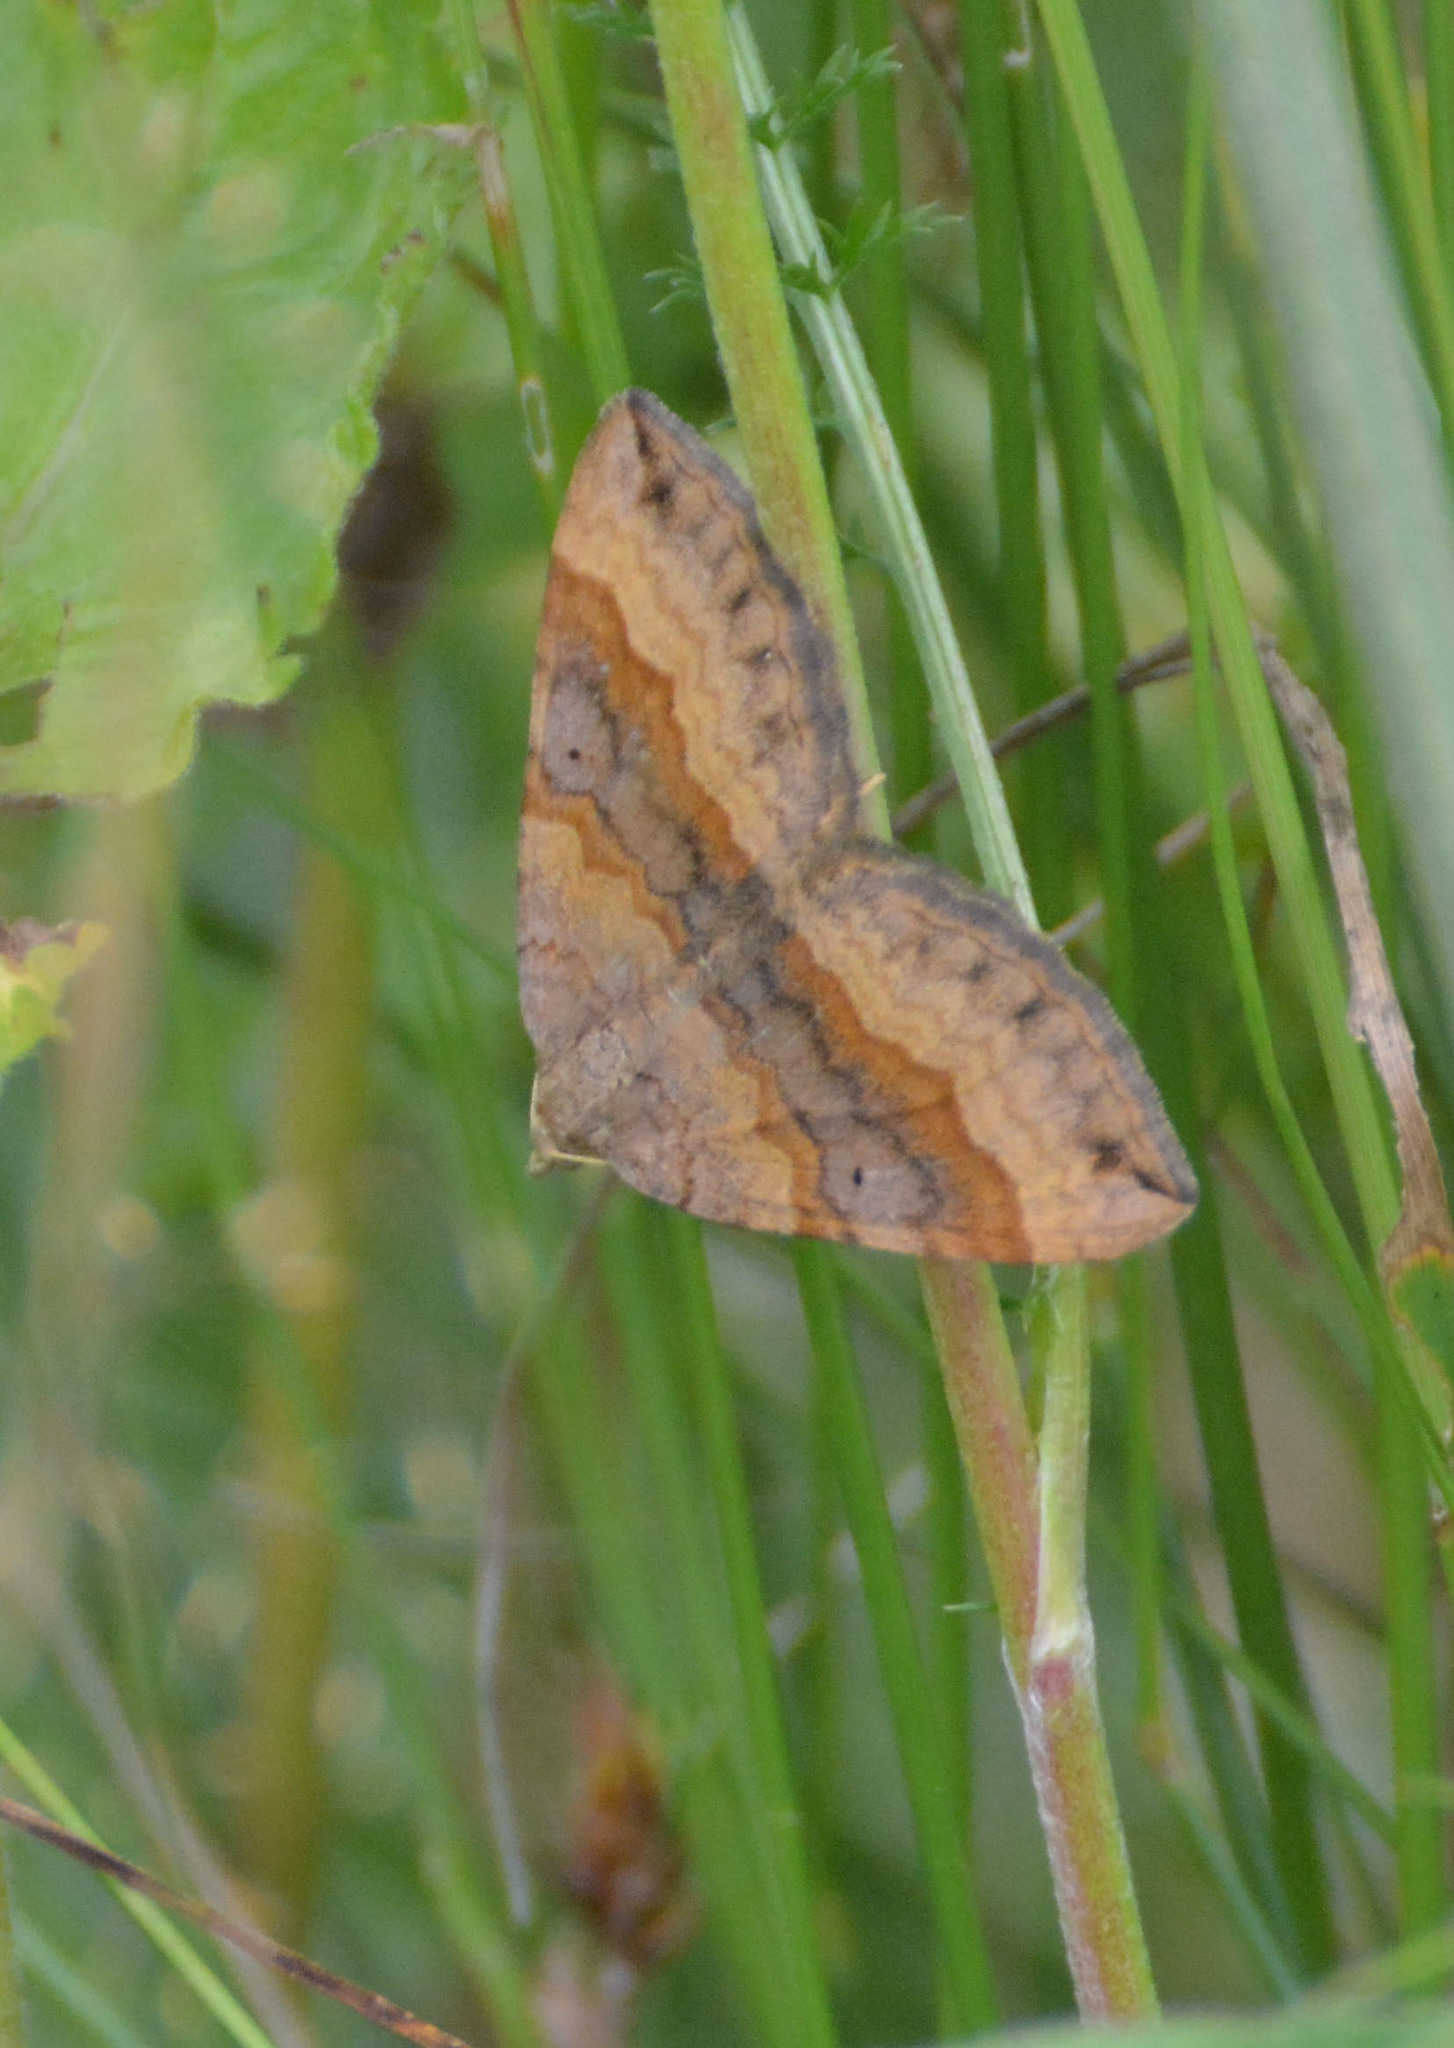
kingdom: Animalia
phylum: Arthropoda
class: Insecta
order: Lepidoptera
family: Geometridae
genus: Scotopteryx
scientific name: Scotopteryx chenopodiata
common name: Shaded broad-bar
